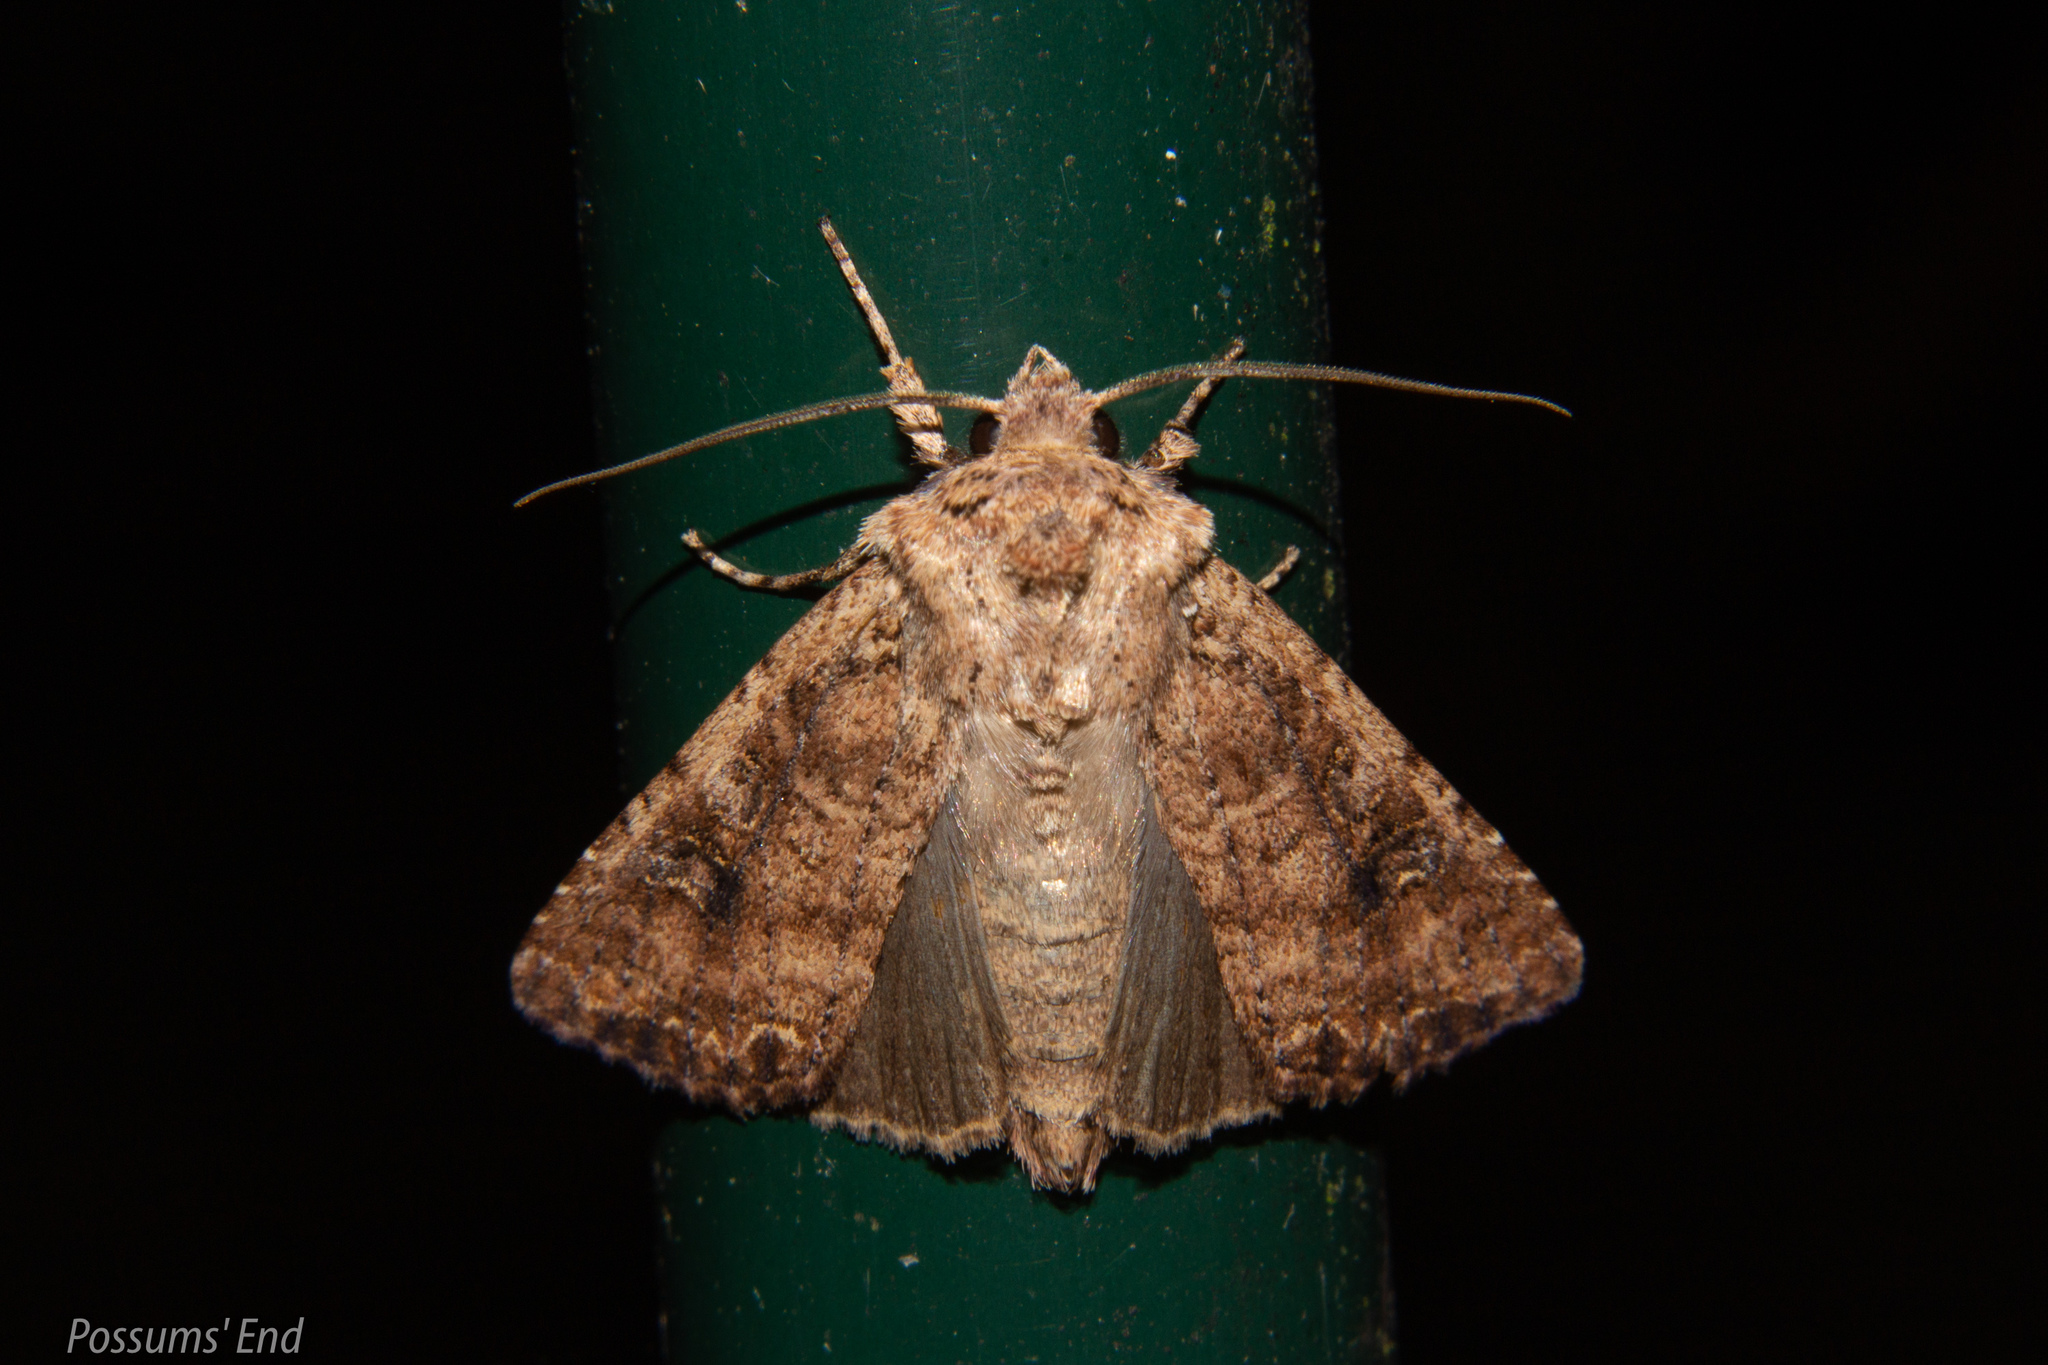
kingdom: Animalia
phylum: Arthropoda
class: Insecta
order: Lepidoptera
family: Noctuidae
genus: Ichneutica
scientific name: Ichneutica morosa
